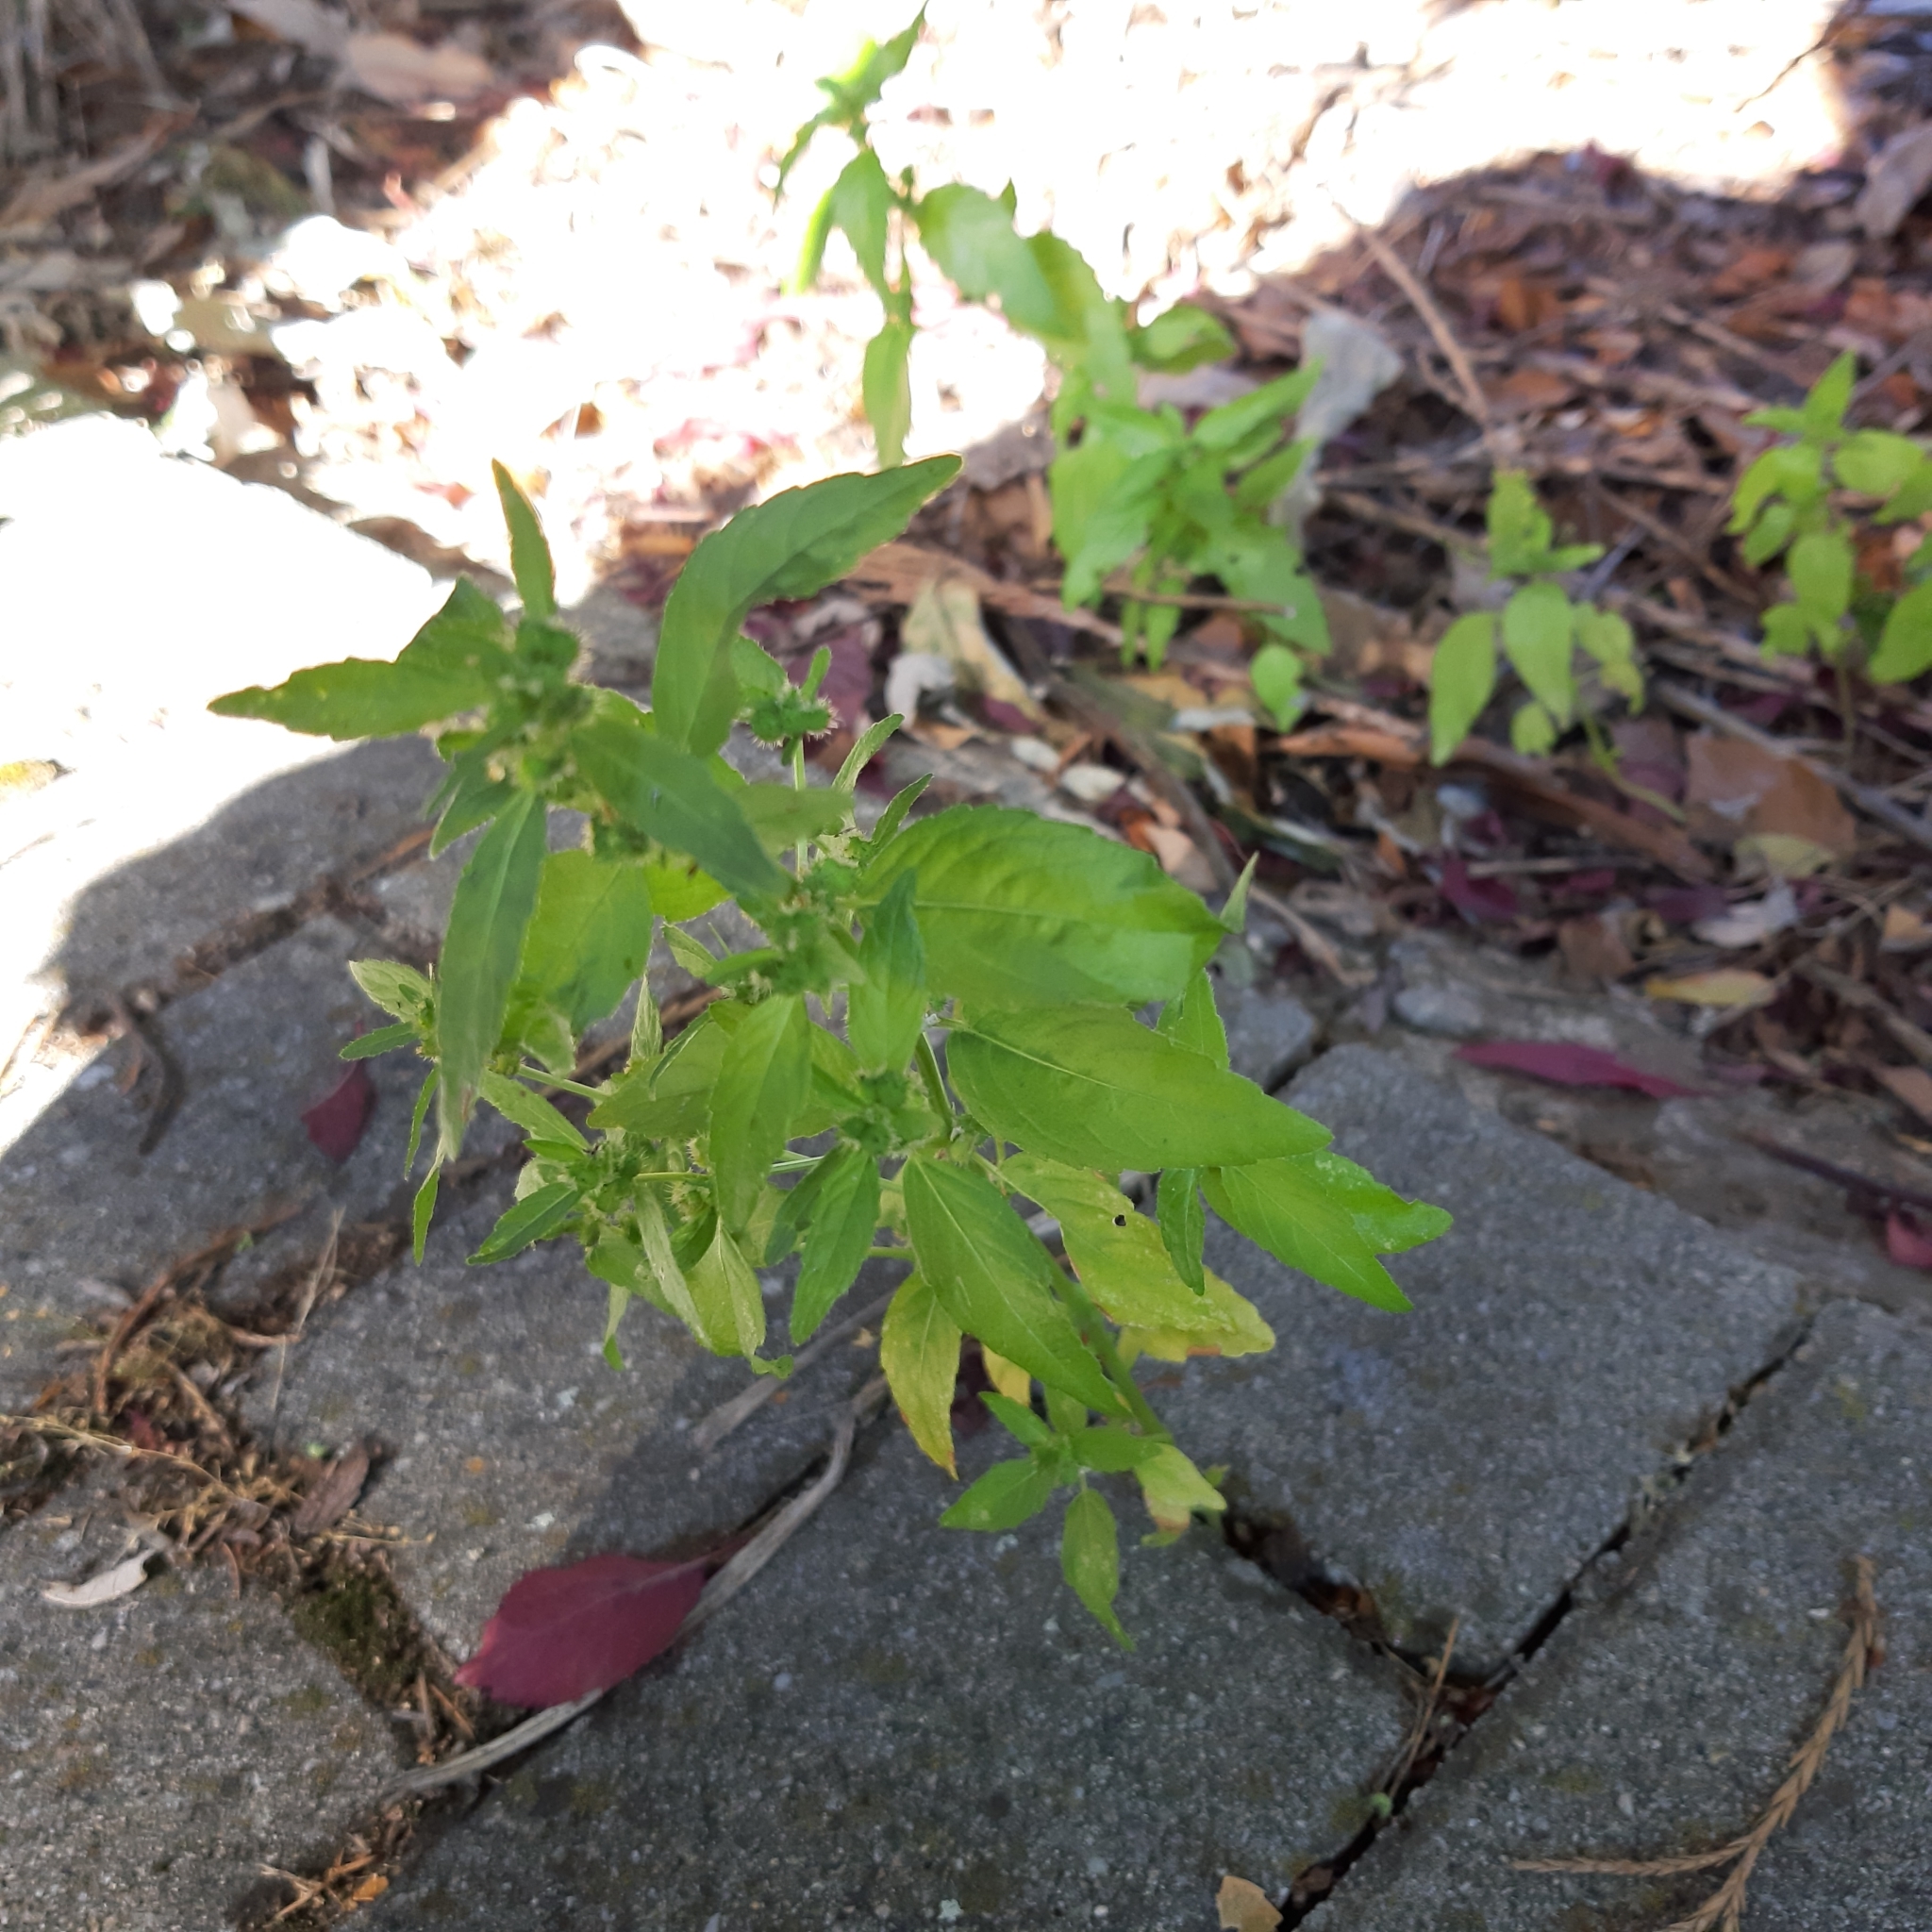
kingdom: Plantae
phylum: Tracheophyta
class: Magnoliopsida
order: Malpighiales
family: Euphorbiaceae
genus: Mercurialis
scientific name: Mercurialis annua
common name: Annual mercury
